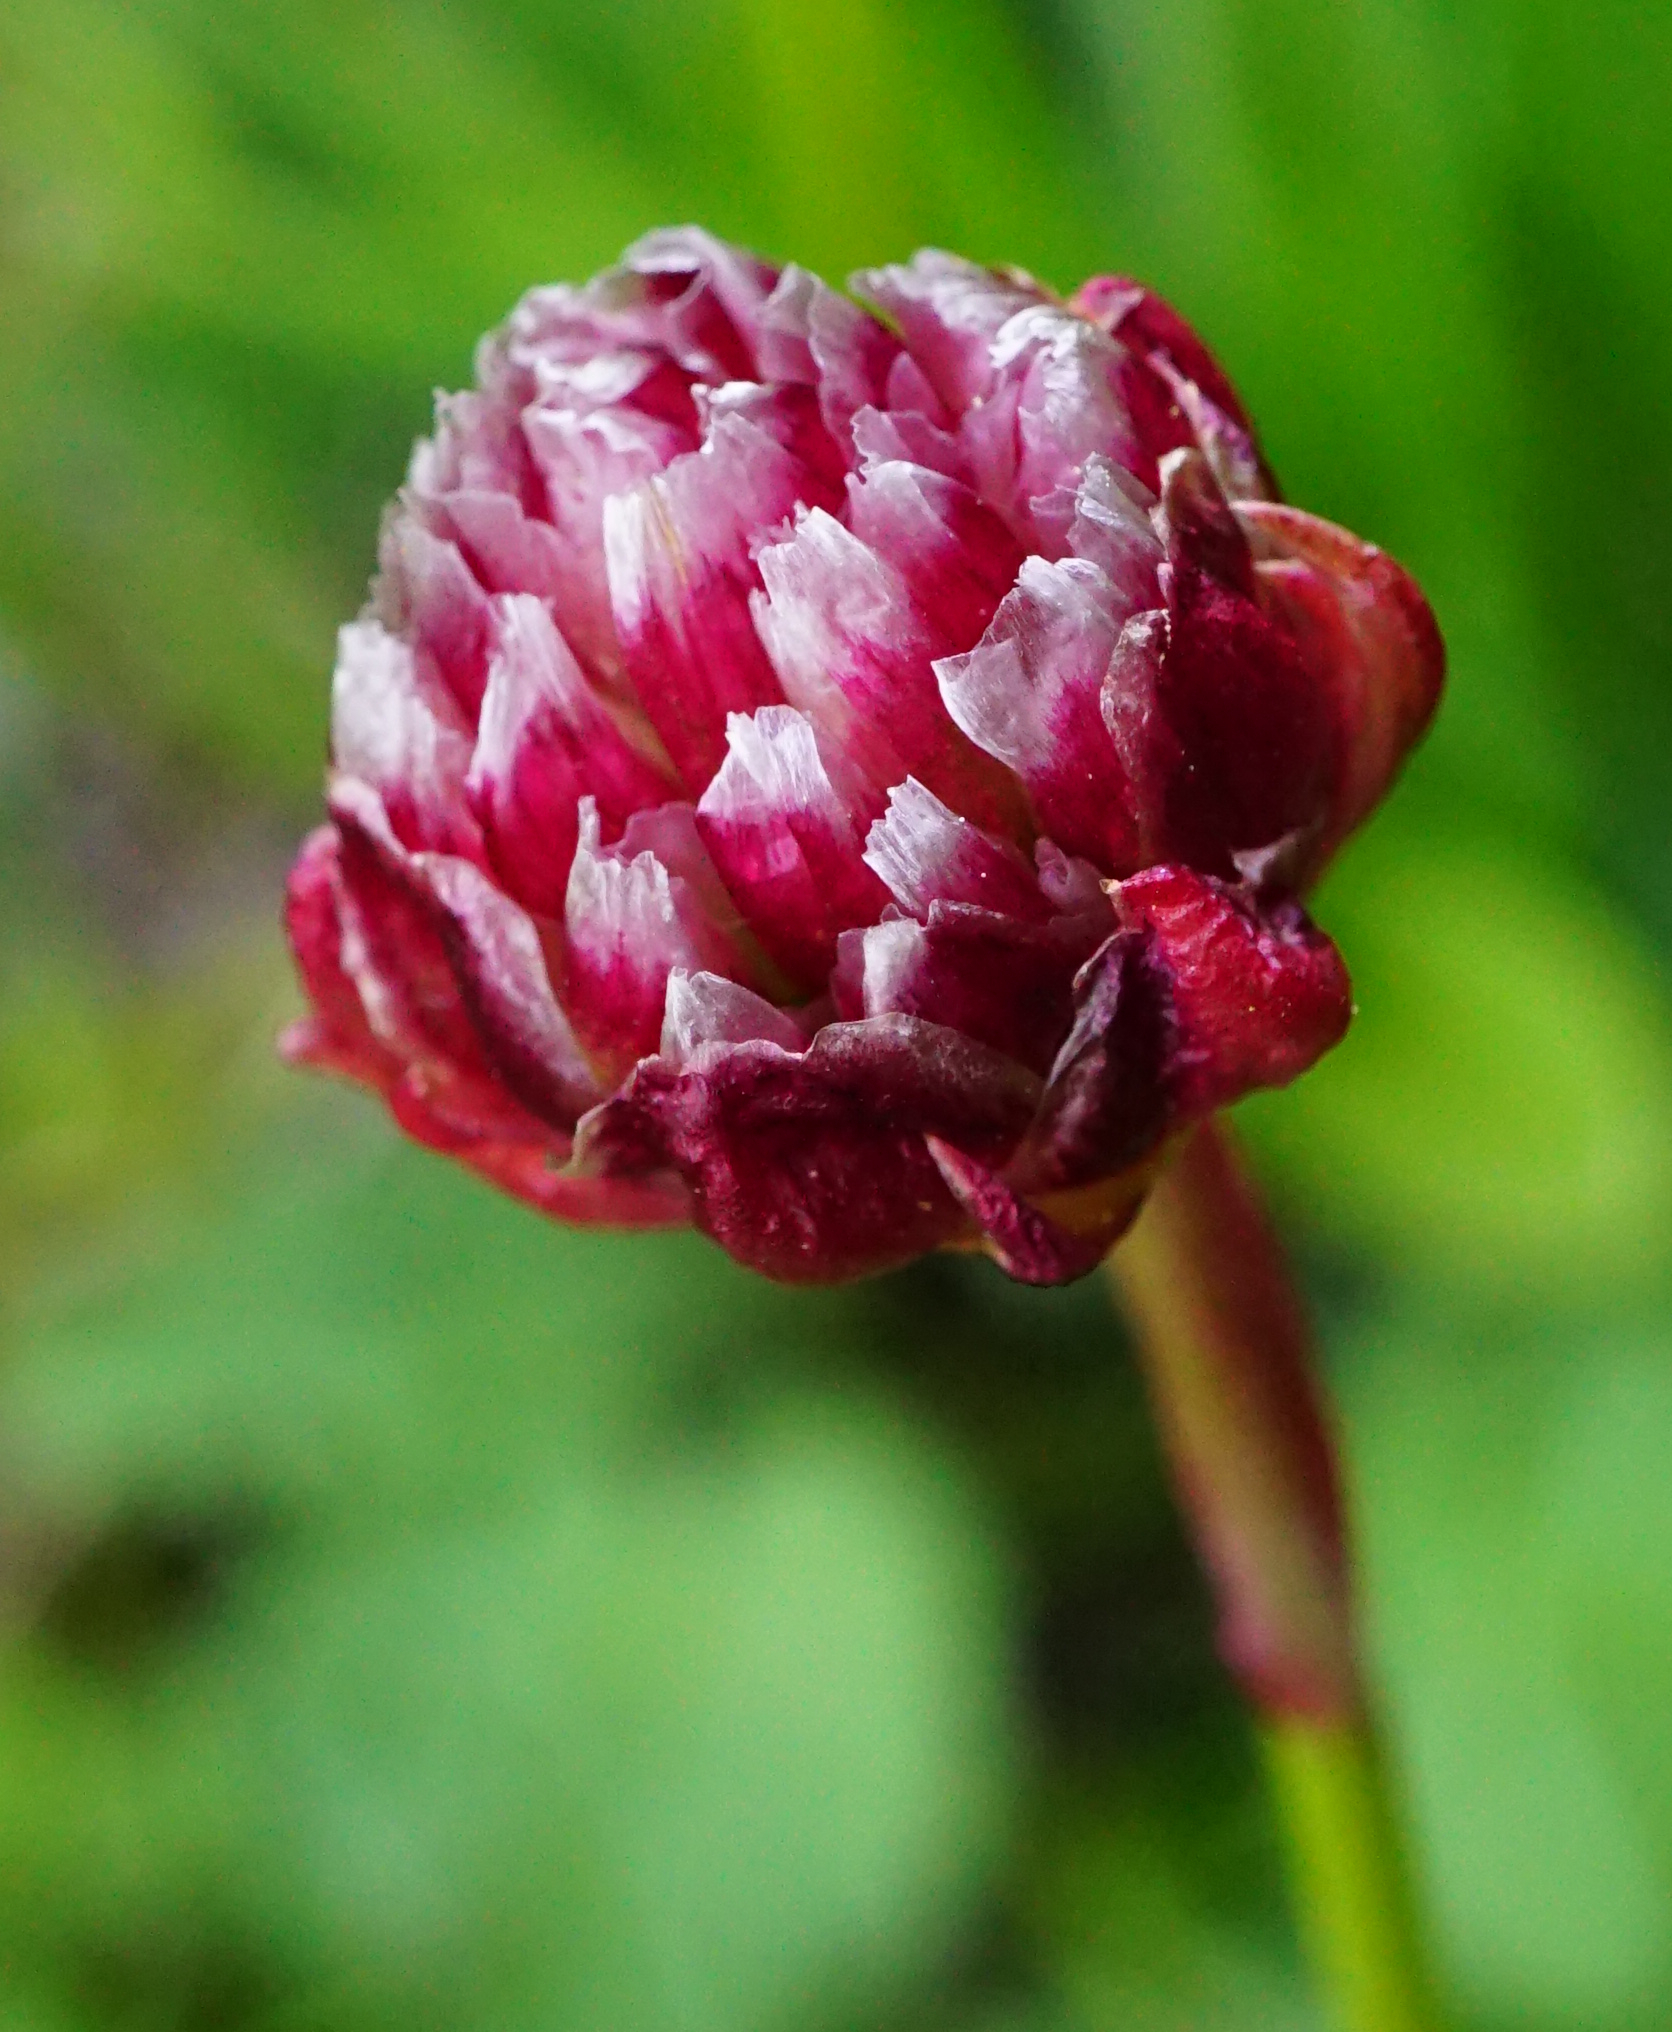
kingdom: Plantae
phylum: Tracheophyta
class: Magnoliopsida
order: Caryophyllales
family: Plumbaginaceae
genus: Armeria
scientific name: Armeria alpina
